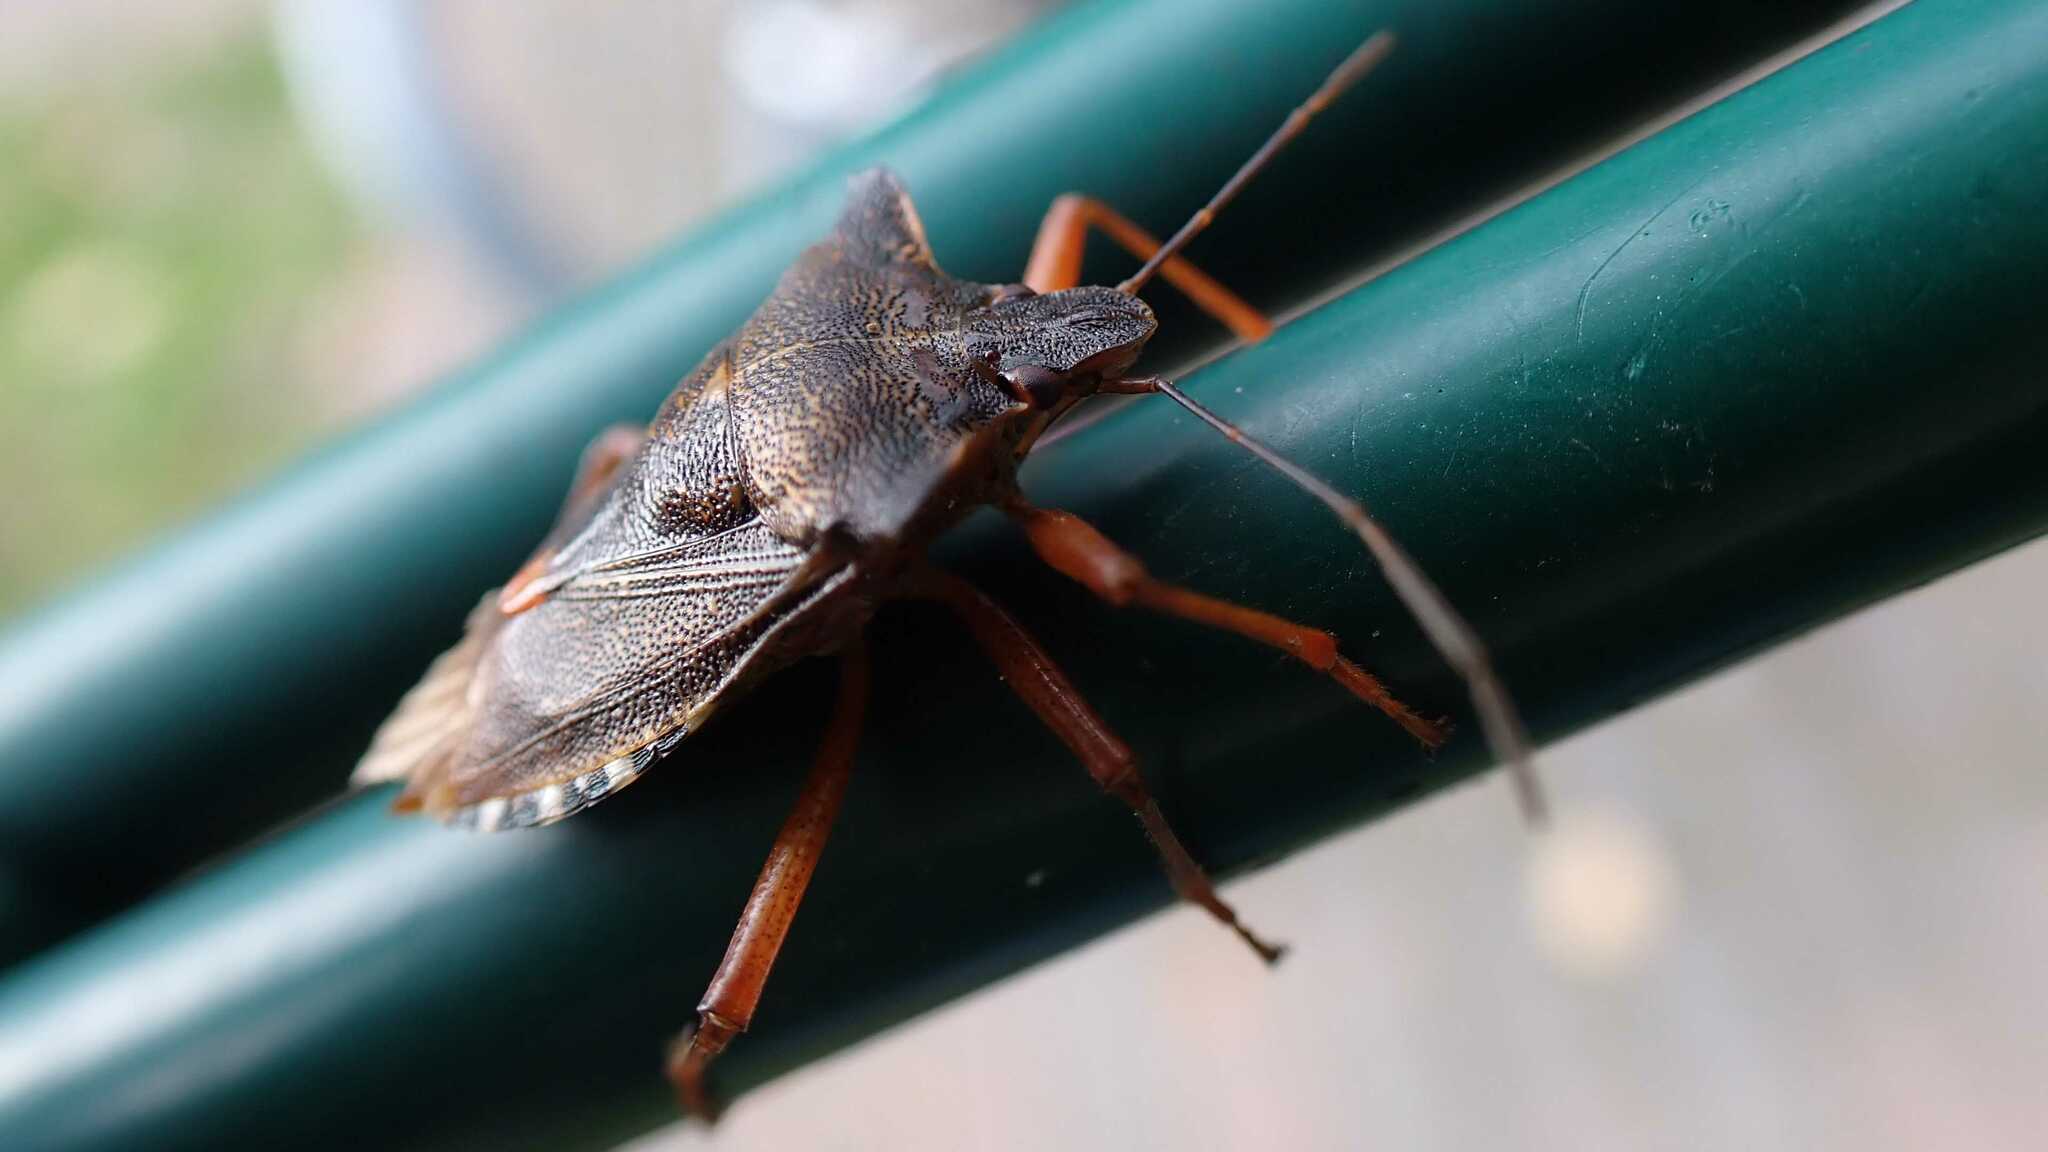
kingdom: Animalia
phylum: Arthropoda
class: Insecta
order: Hemiptera
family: Pentatomidae
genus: Pentatoma
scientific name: Pentatoma rufipes
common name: Forest bug
